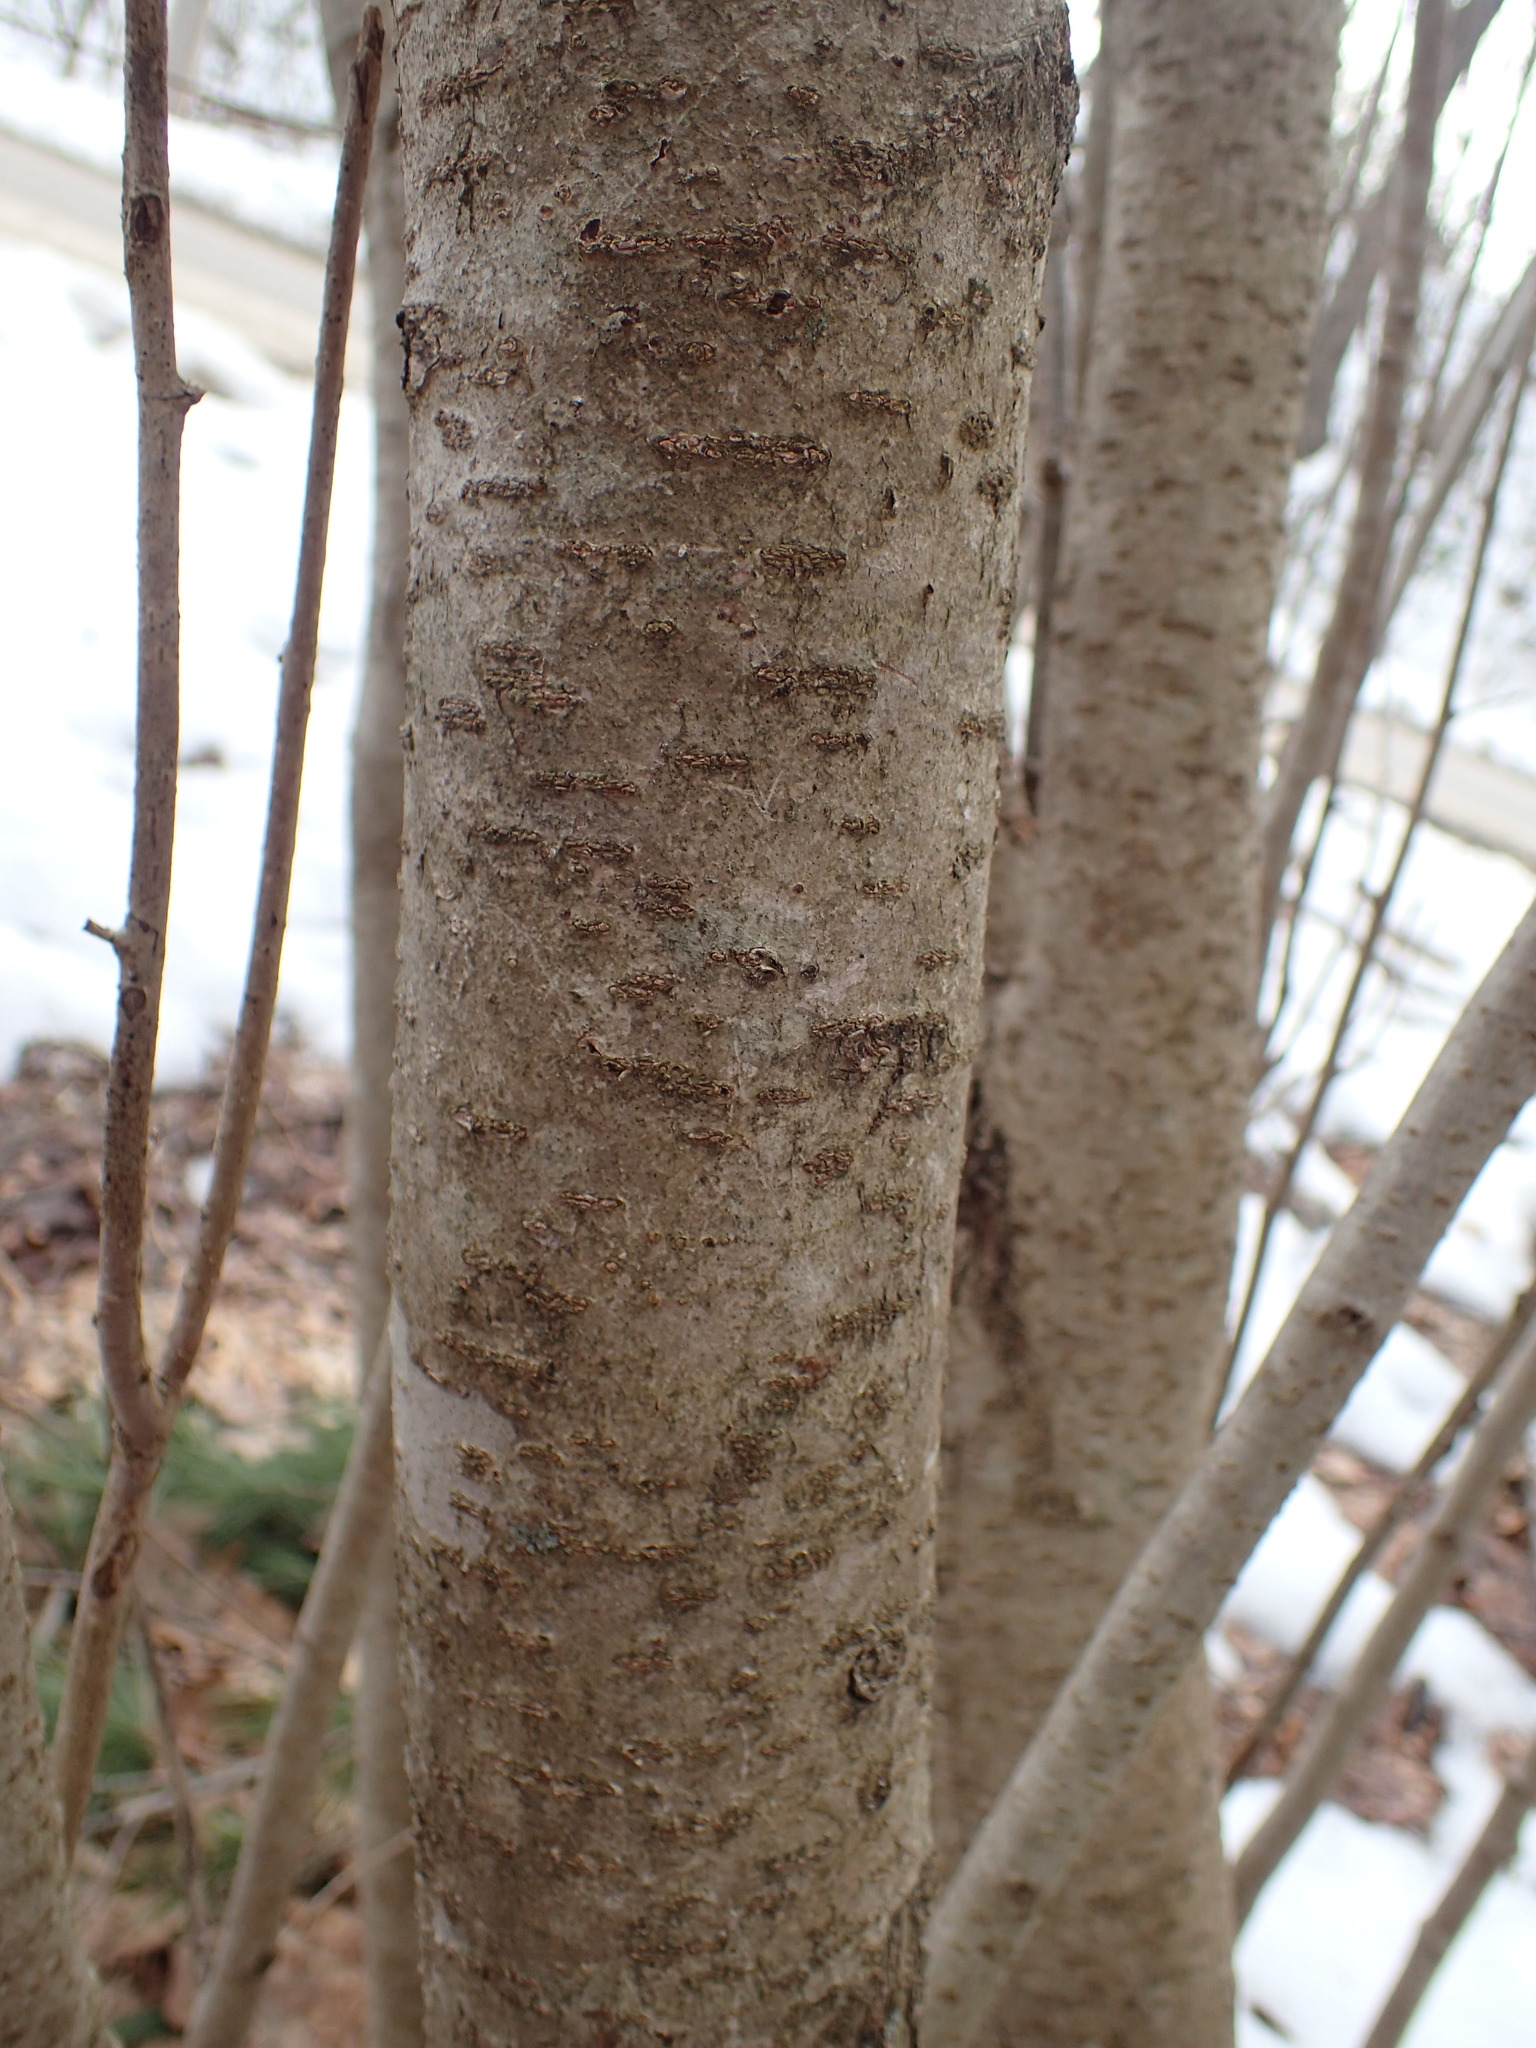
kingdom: Plantae
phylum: Tracheophyta
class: Magnoliopsida
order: Saxifragales
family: Hamamelidaceae
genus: Hamamelis
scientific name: Hamamelis virginiana
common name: Witch-hazel
